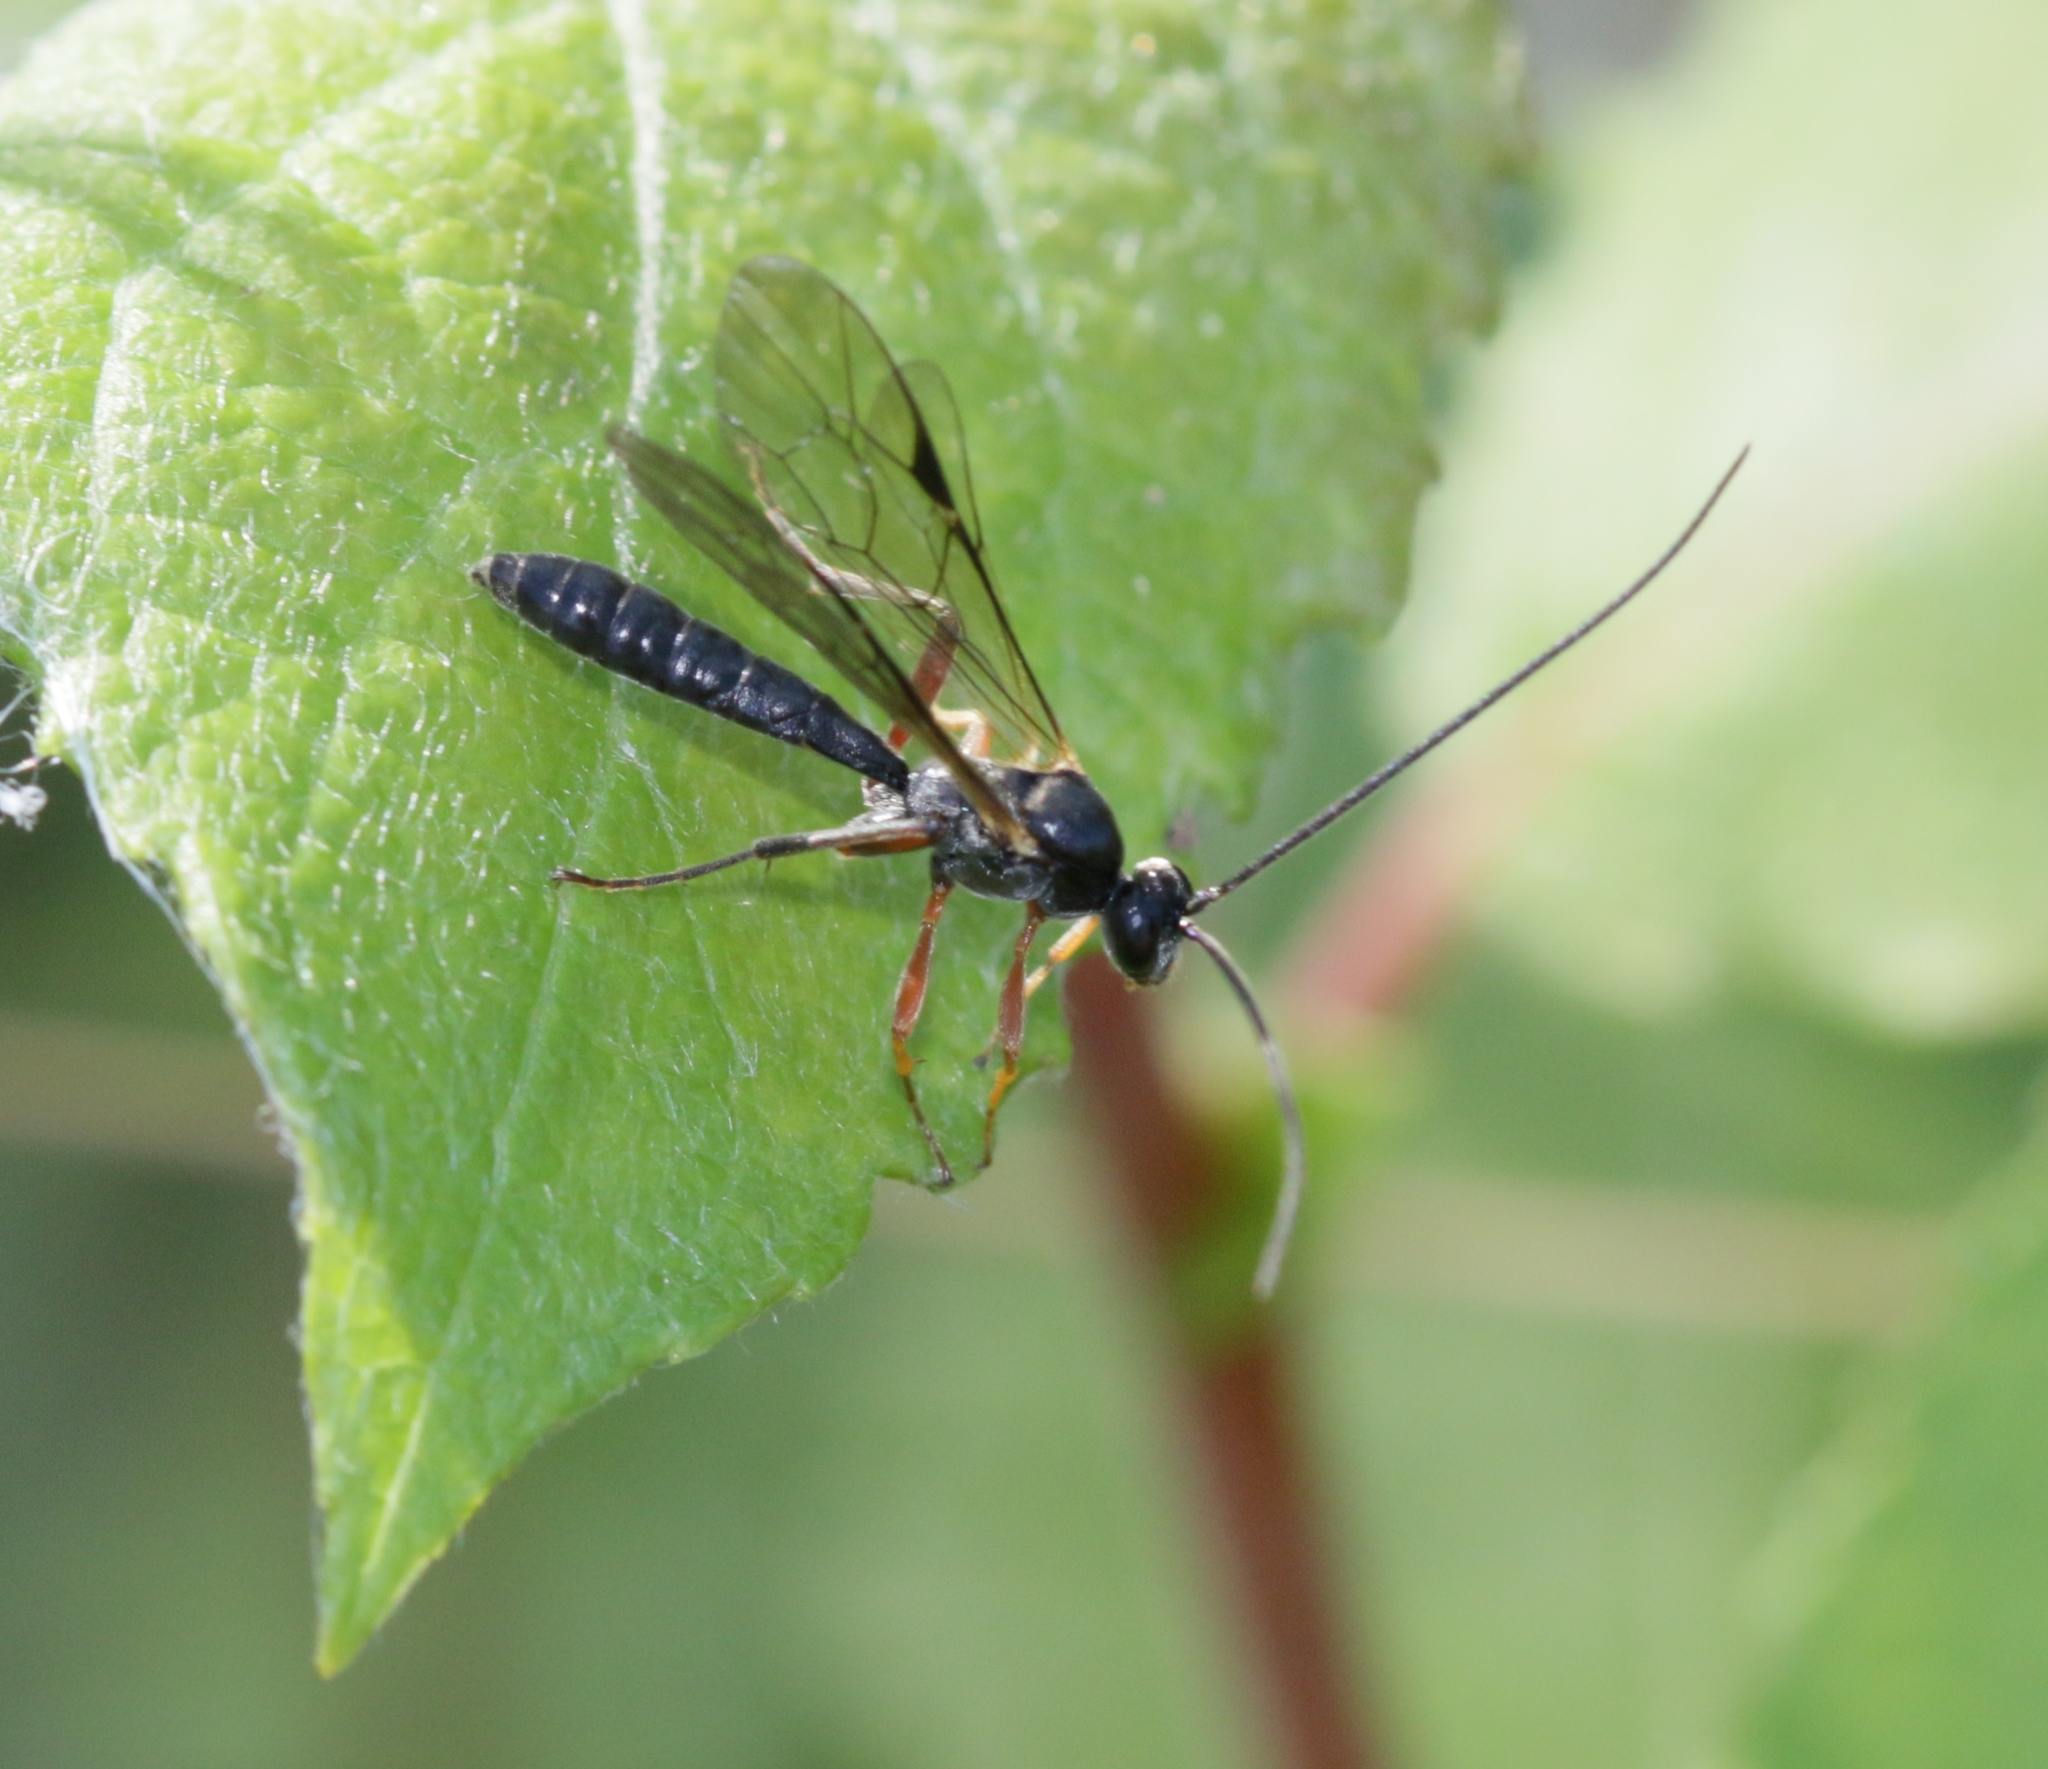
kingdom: Animalia
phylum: Arthropoda
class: Insecta
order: Hymenoptera
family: Ichneumonidae
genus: Dyspetes
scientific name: Dyspetes luteomarginatus
